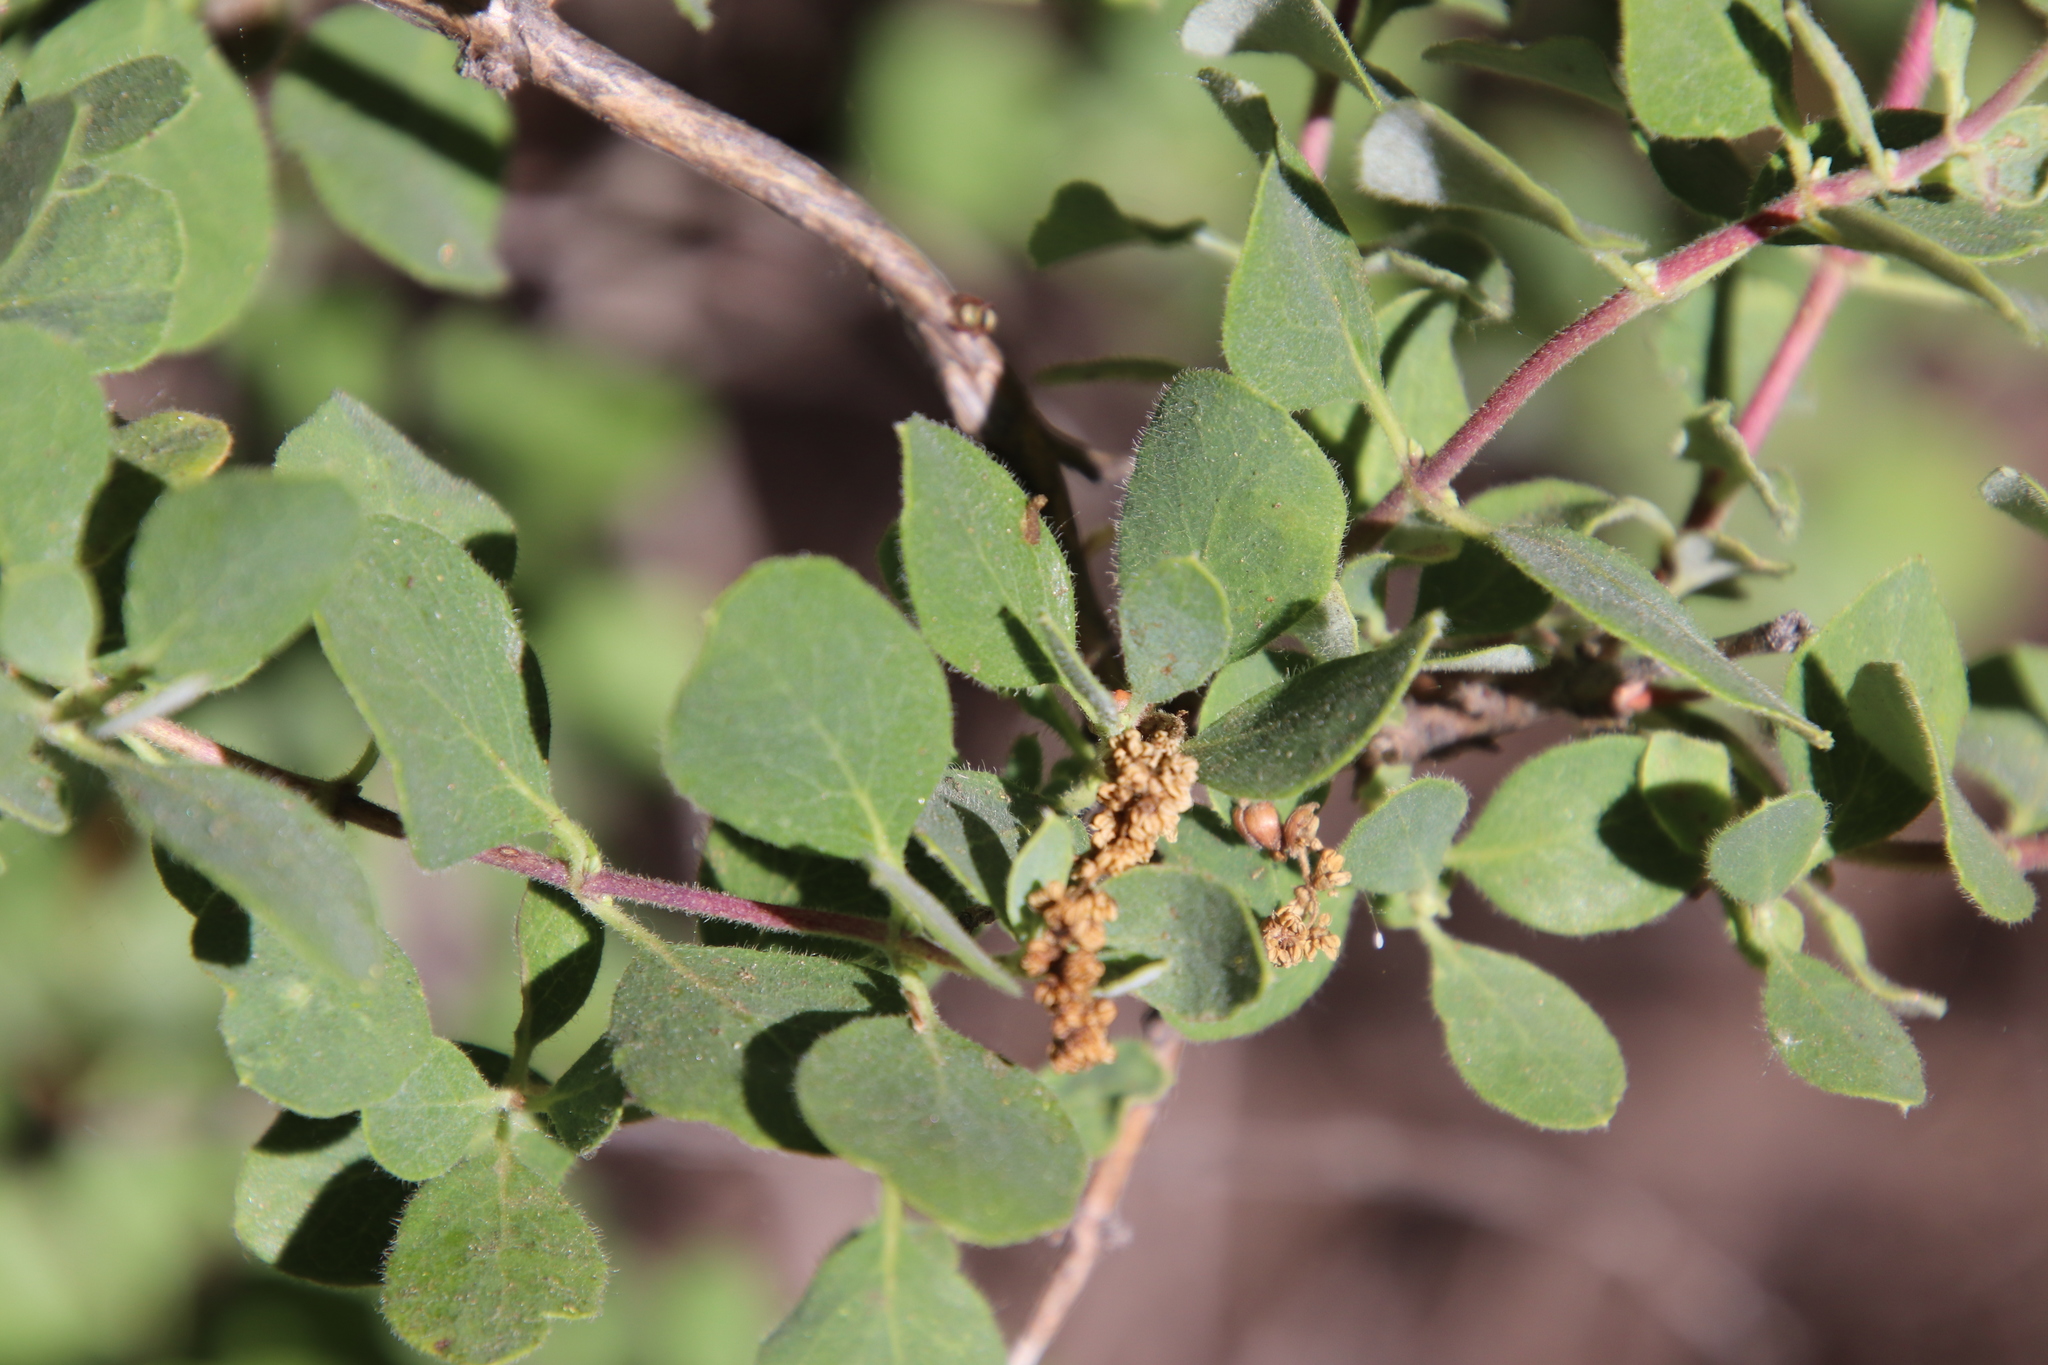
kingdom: Plantae
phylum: Tracheophyta
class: Magnoliopsida
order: Dipsacales
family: Caprifoliaceae
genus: Lonicera
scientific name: Lonicera subspicata
